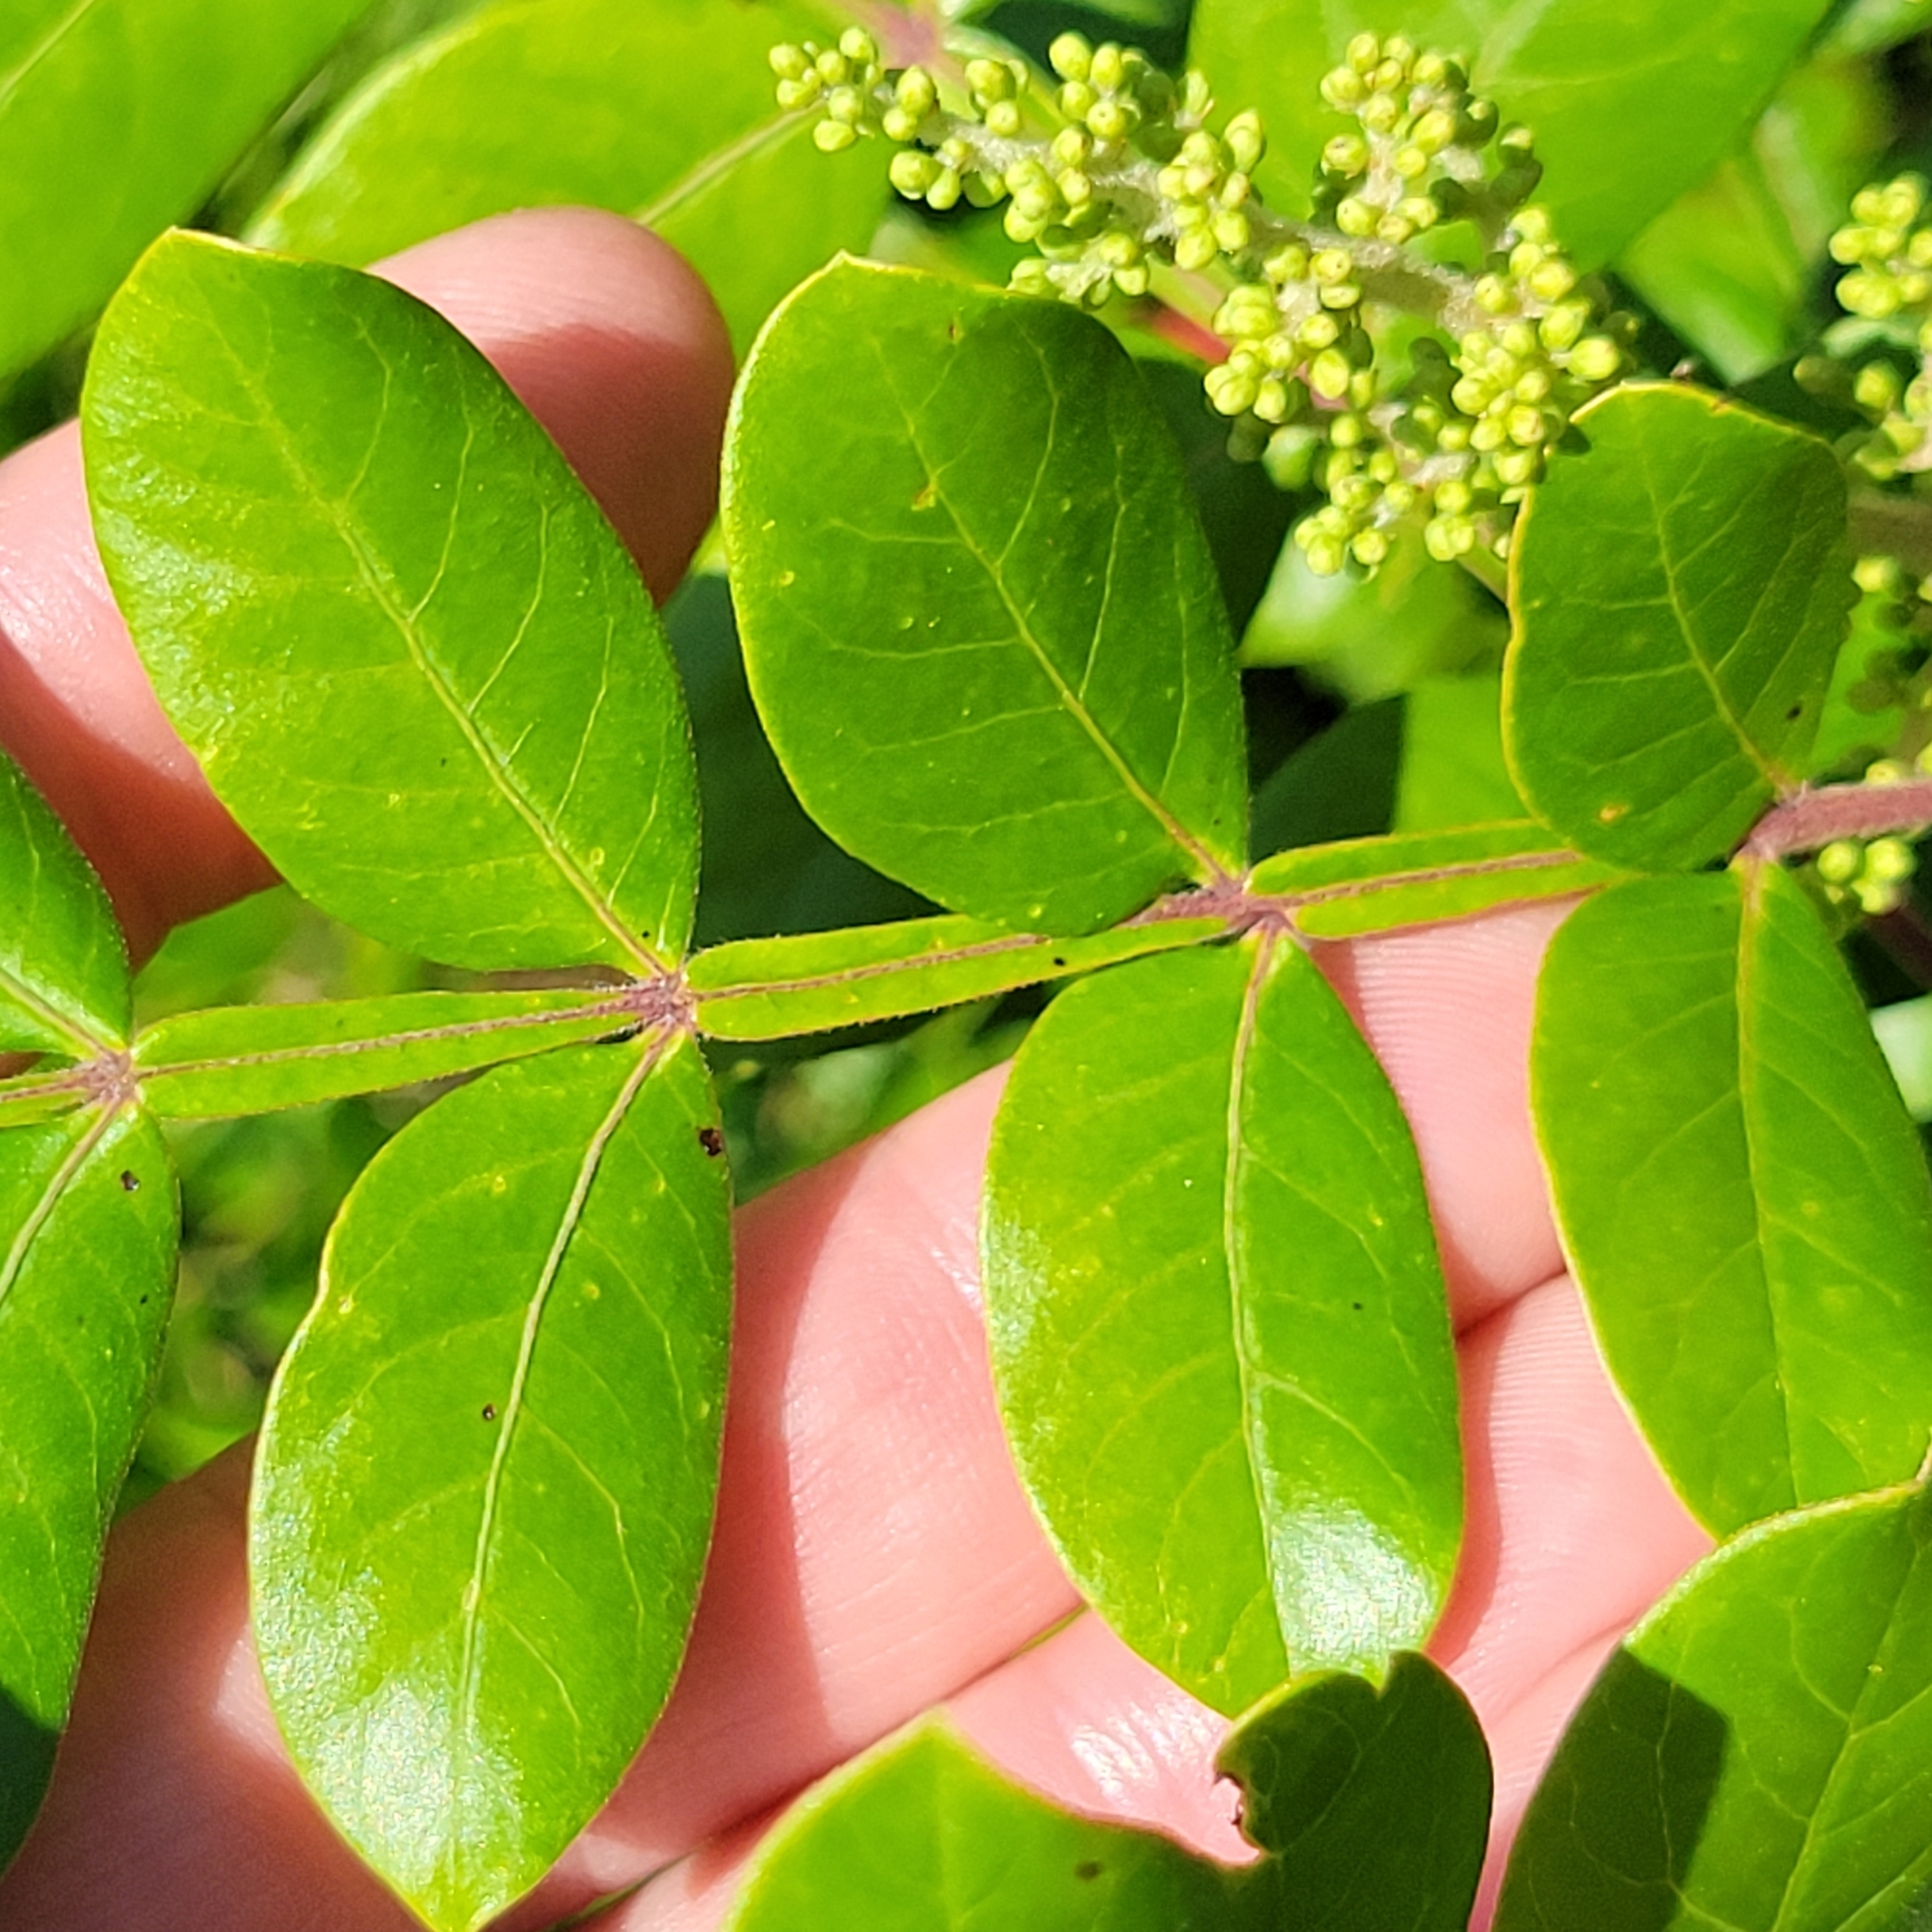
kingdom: Plantae
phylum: Tracheophyta
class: Magnoliopsida
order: Sapindales
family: Anacardiaceae
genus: Rhus
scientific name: Rhus copallina
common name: Shining sumac
